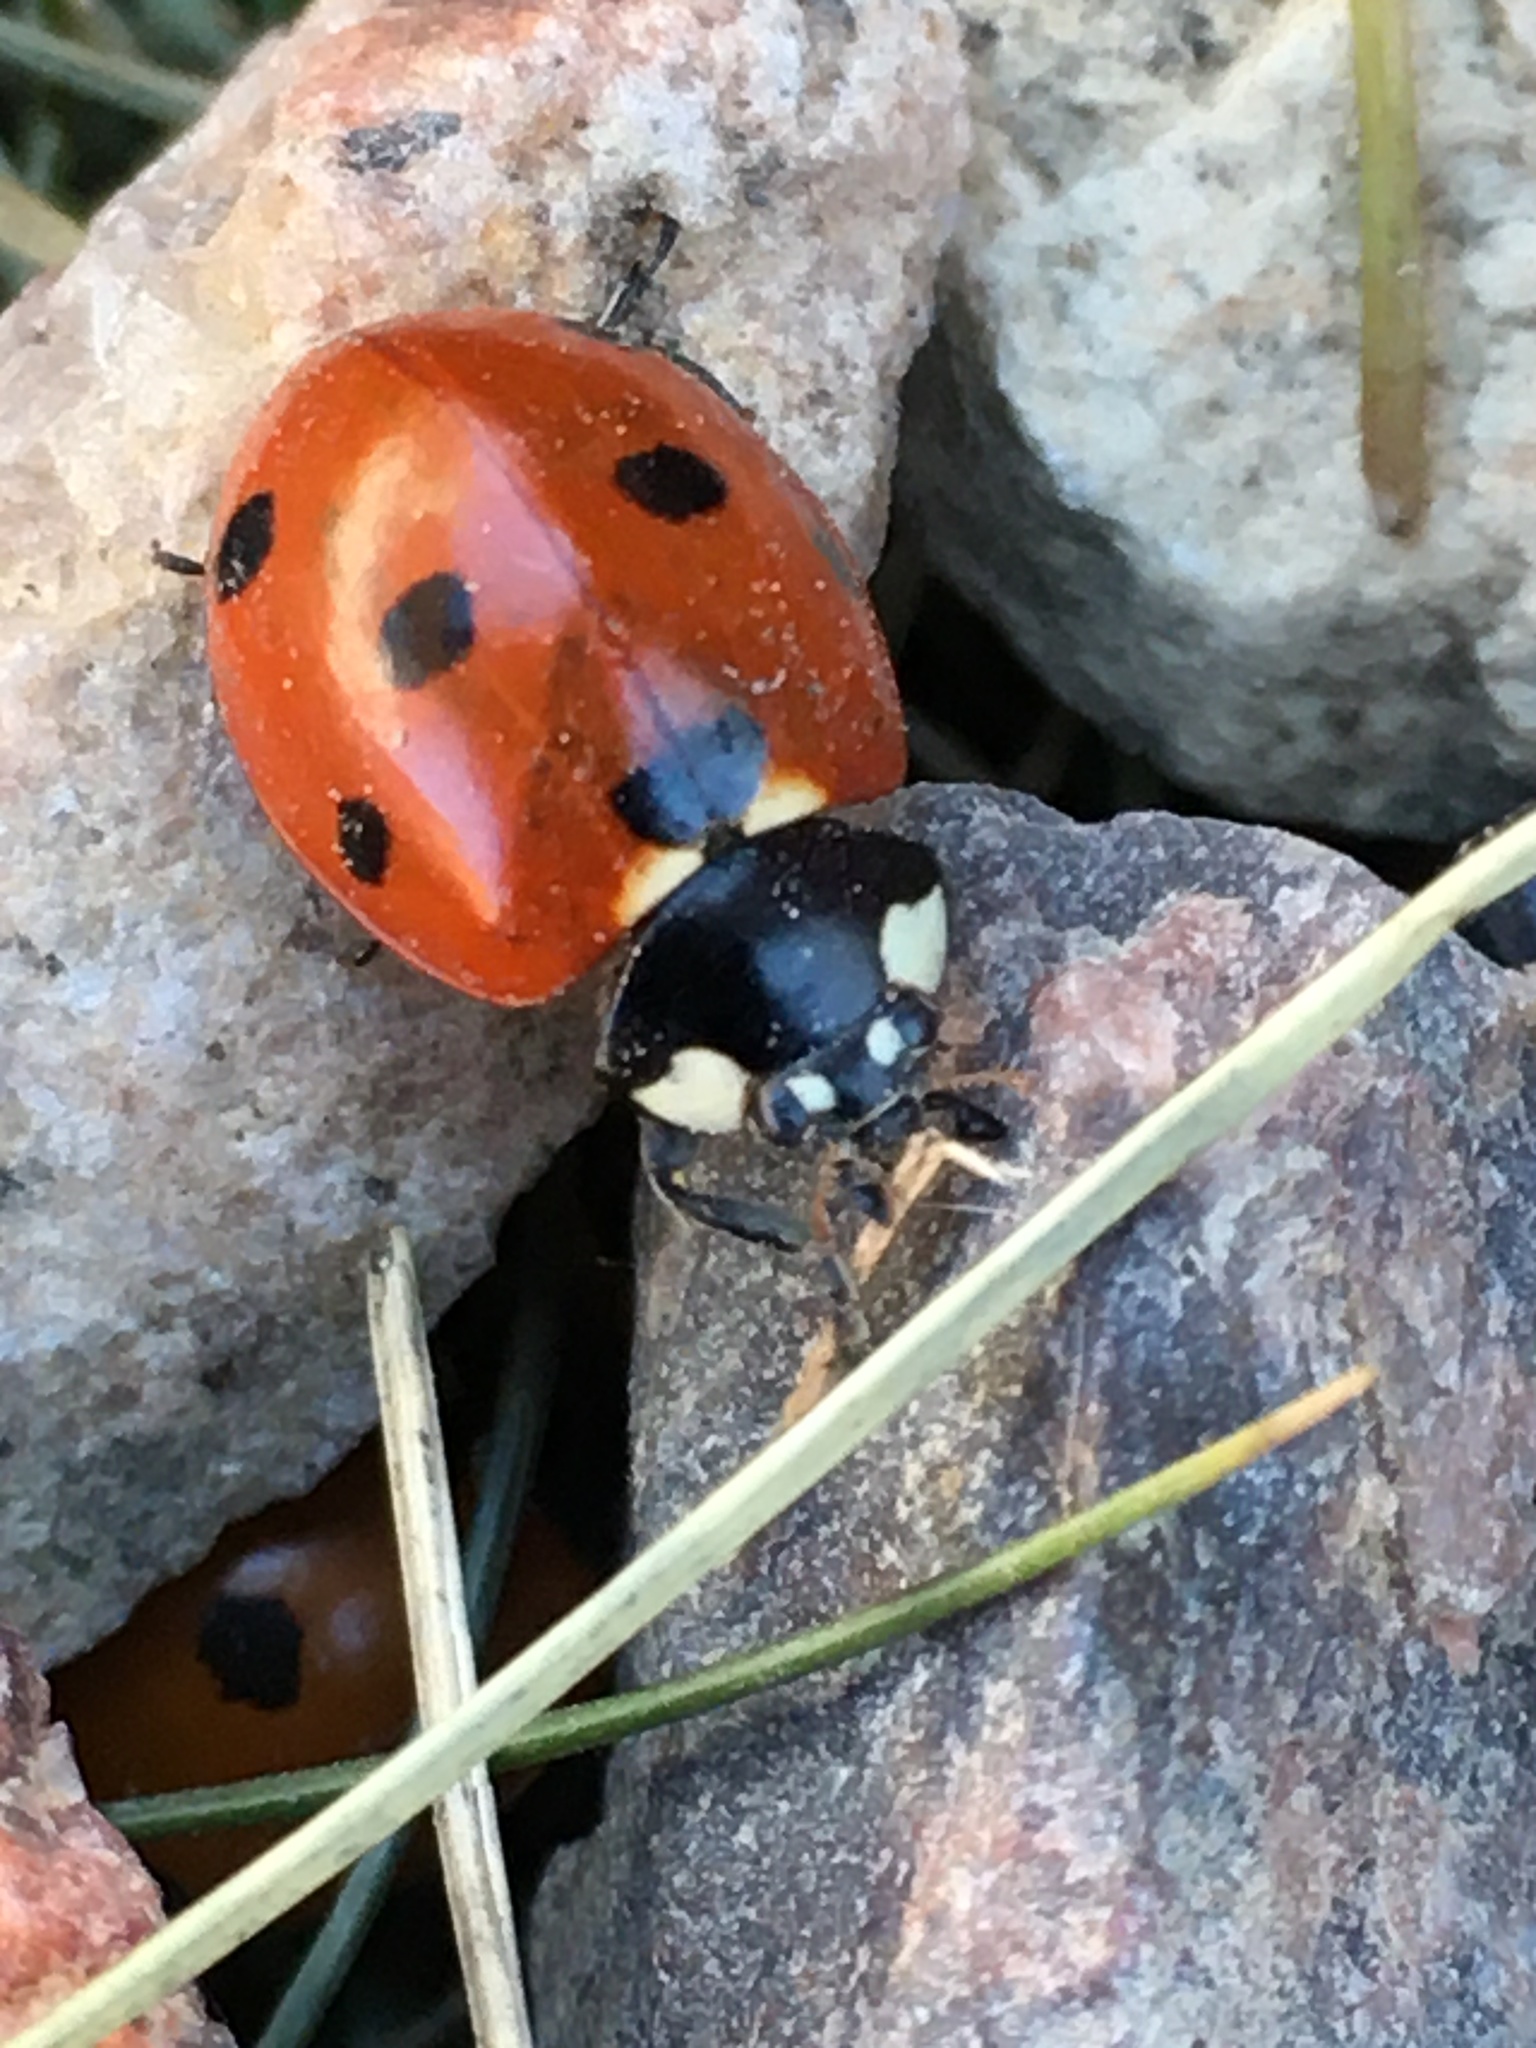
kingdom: Animalia
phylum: Arthropoda
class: Insecta
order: Coleoptera
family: Coccinellidae
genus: Coccinella
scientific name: Coccinella septempunctata
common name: Sevenspotted lady beetle
